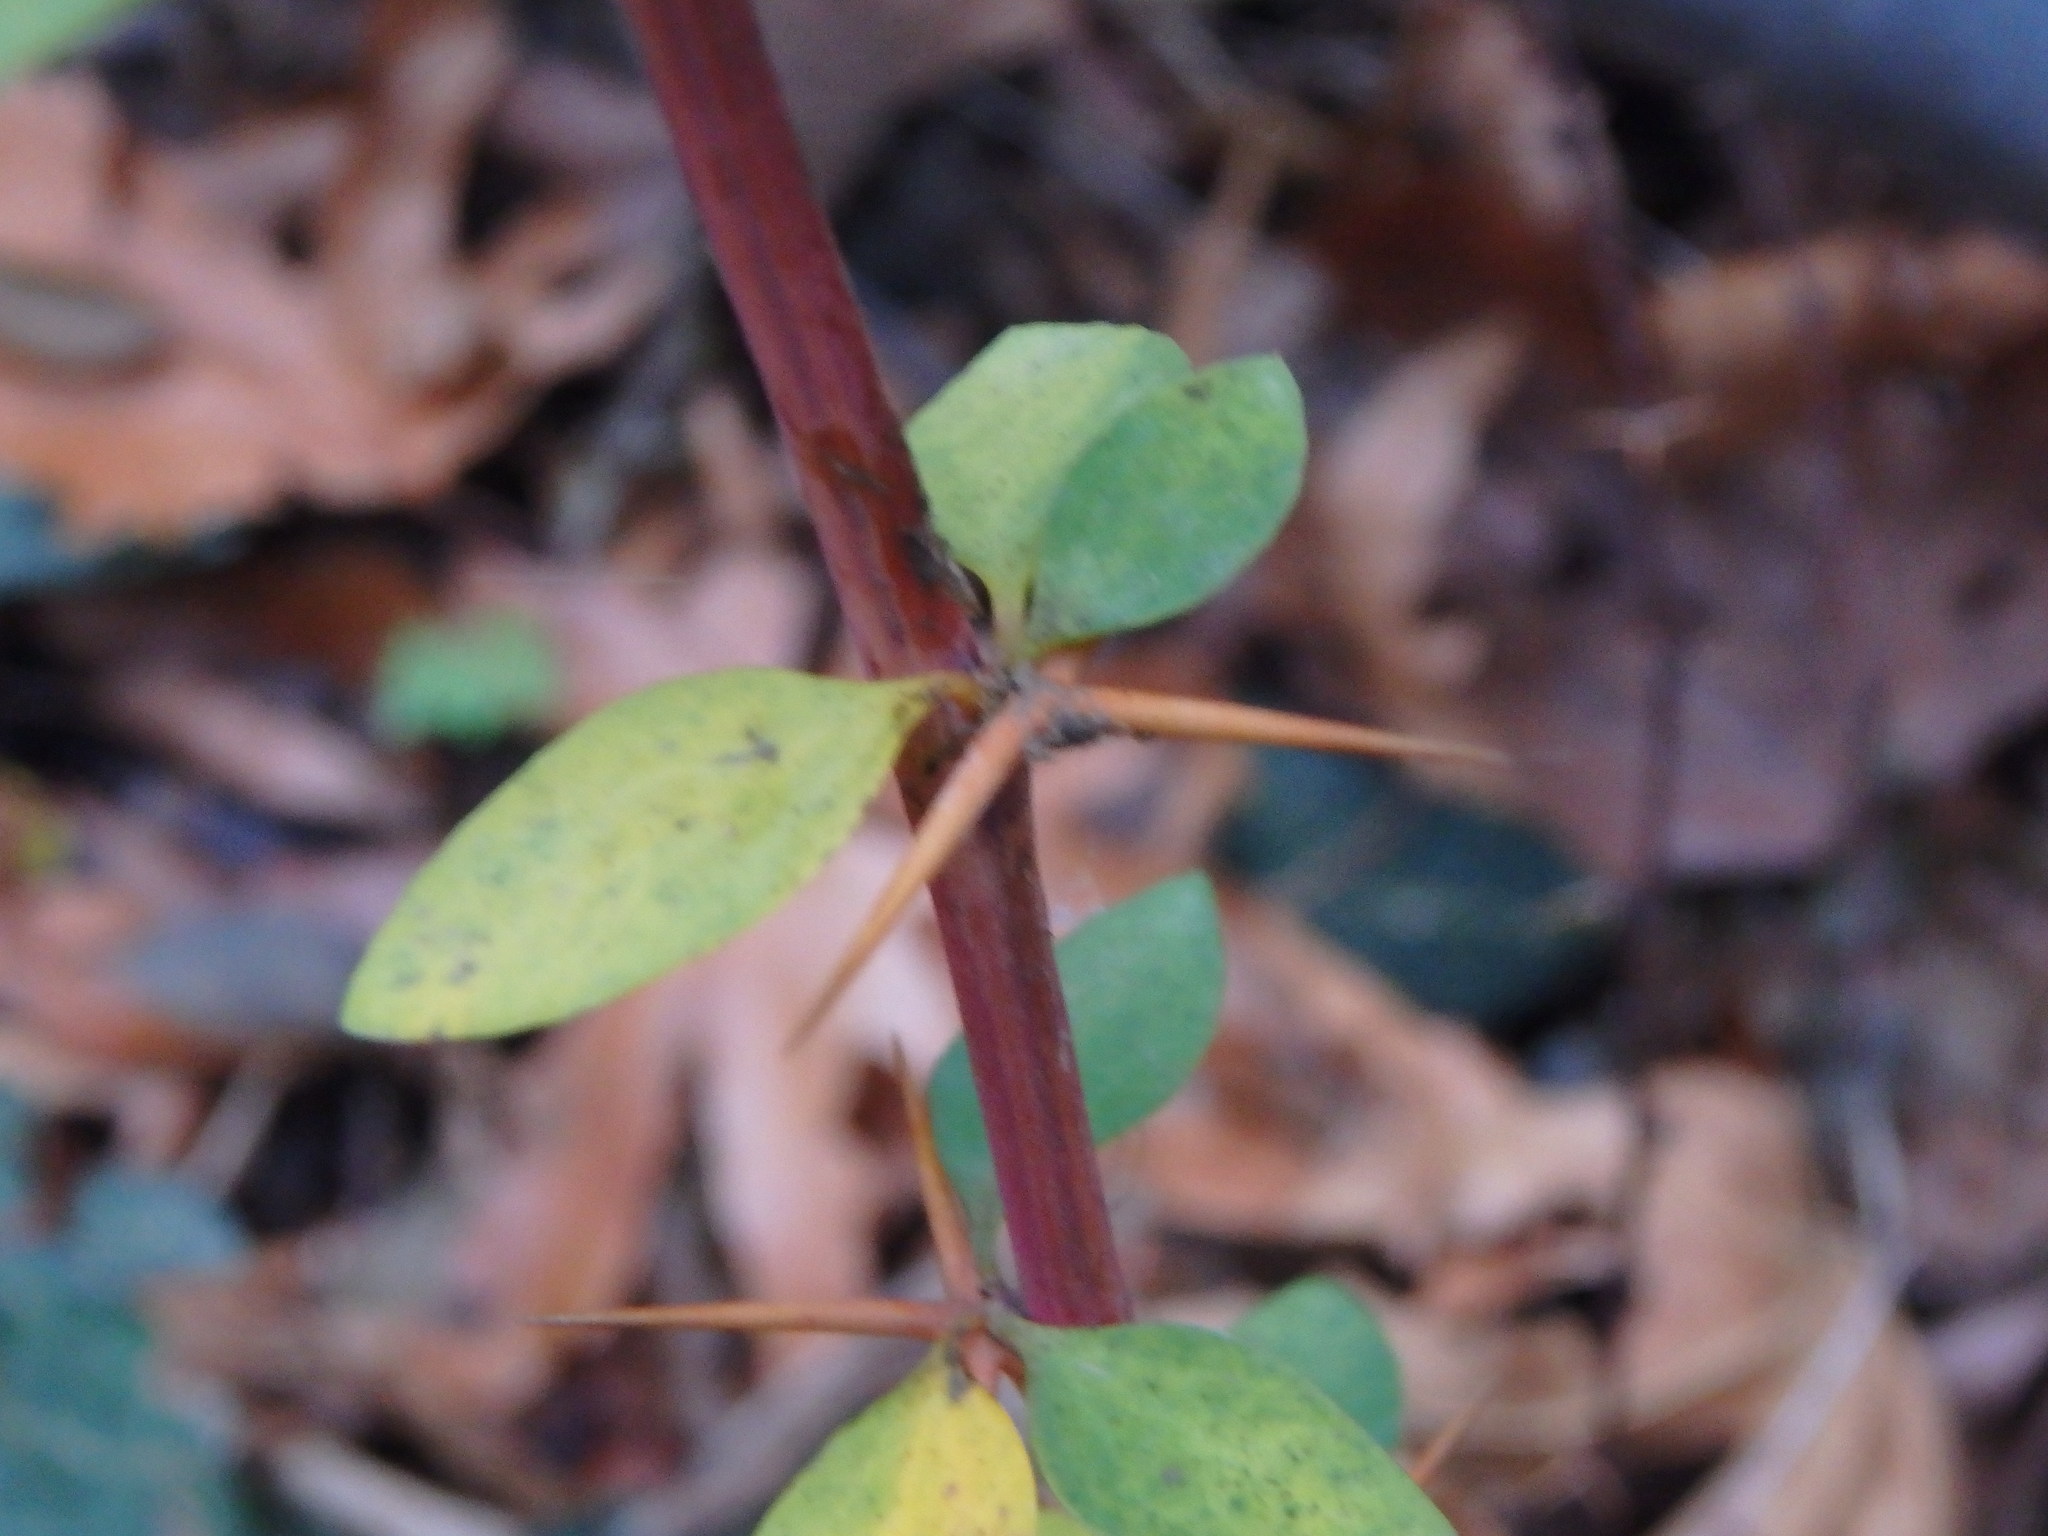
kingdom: Plantae
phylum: Tracheophyta
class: Magnoliopsida
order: Ranunculales
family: Berberidaceae
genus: Berberis
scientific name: Berberis cretica
